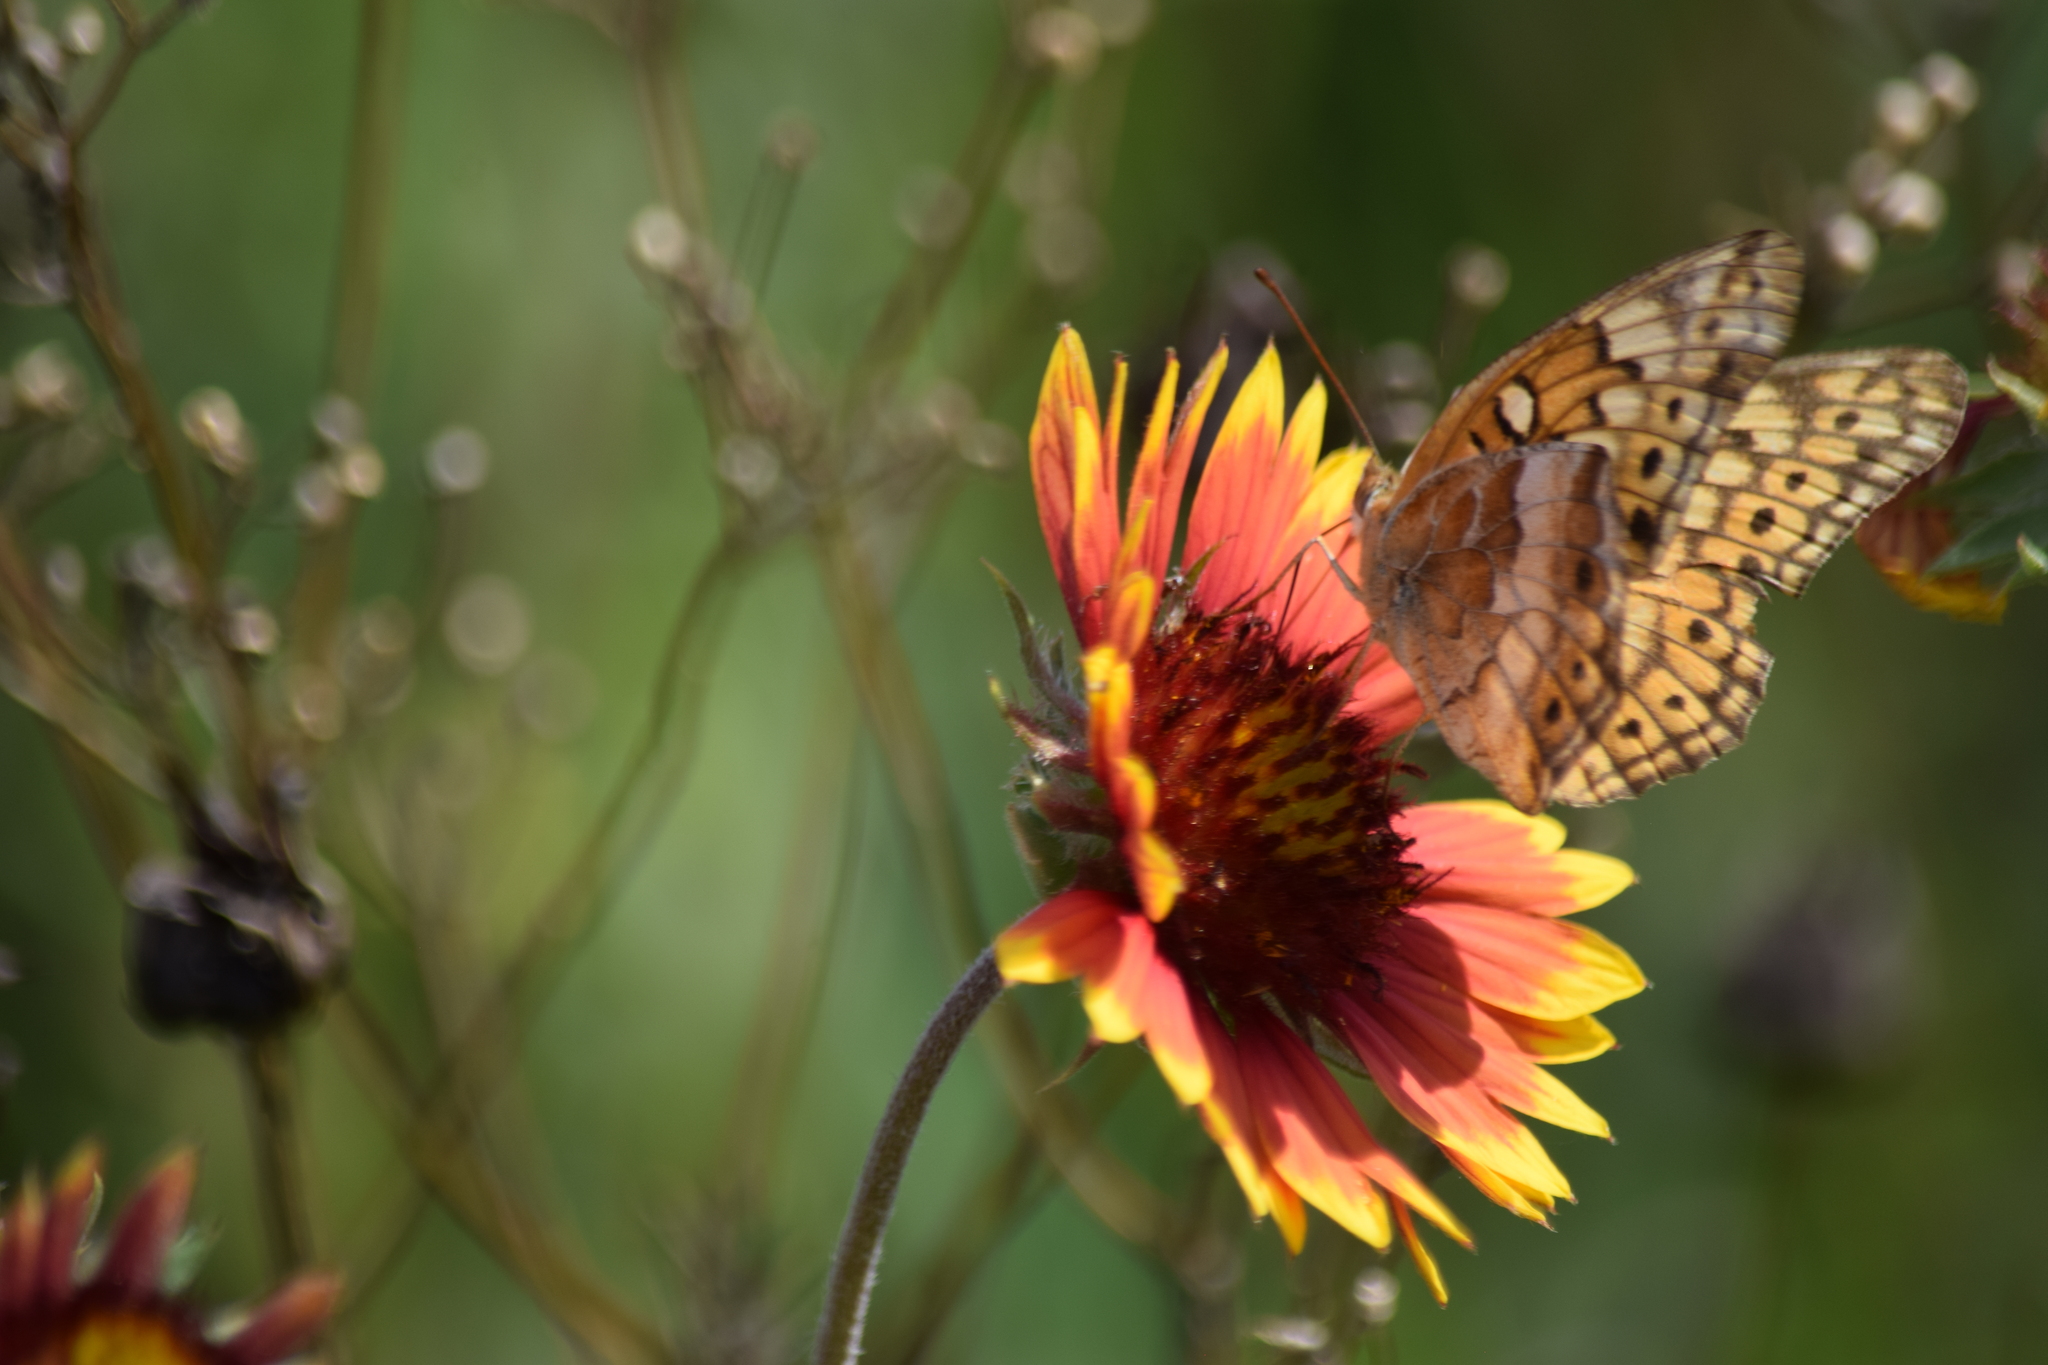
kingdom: Animalia
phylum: Arthropoda
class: Insecta
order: Lepidoptera
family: Nymphalidae
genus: Euptoieta
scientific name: Euptoieta claudia
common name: Variegated fritillary
